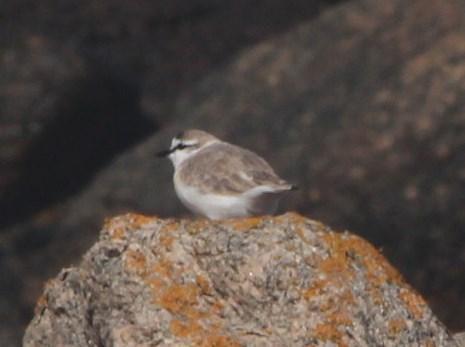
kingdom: Animalia
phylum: Chordata
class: Aves
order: Charadriiformes
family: Charadriidae
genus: Anarhynchus
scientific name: Anarhynchus
